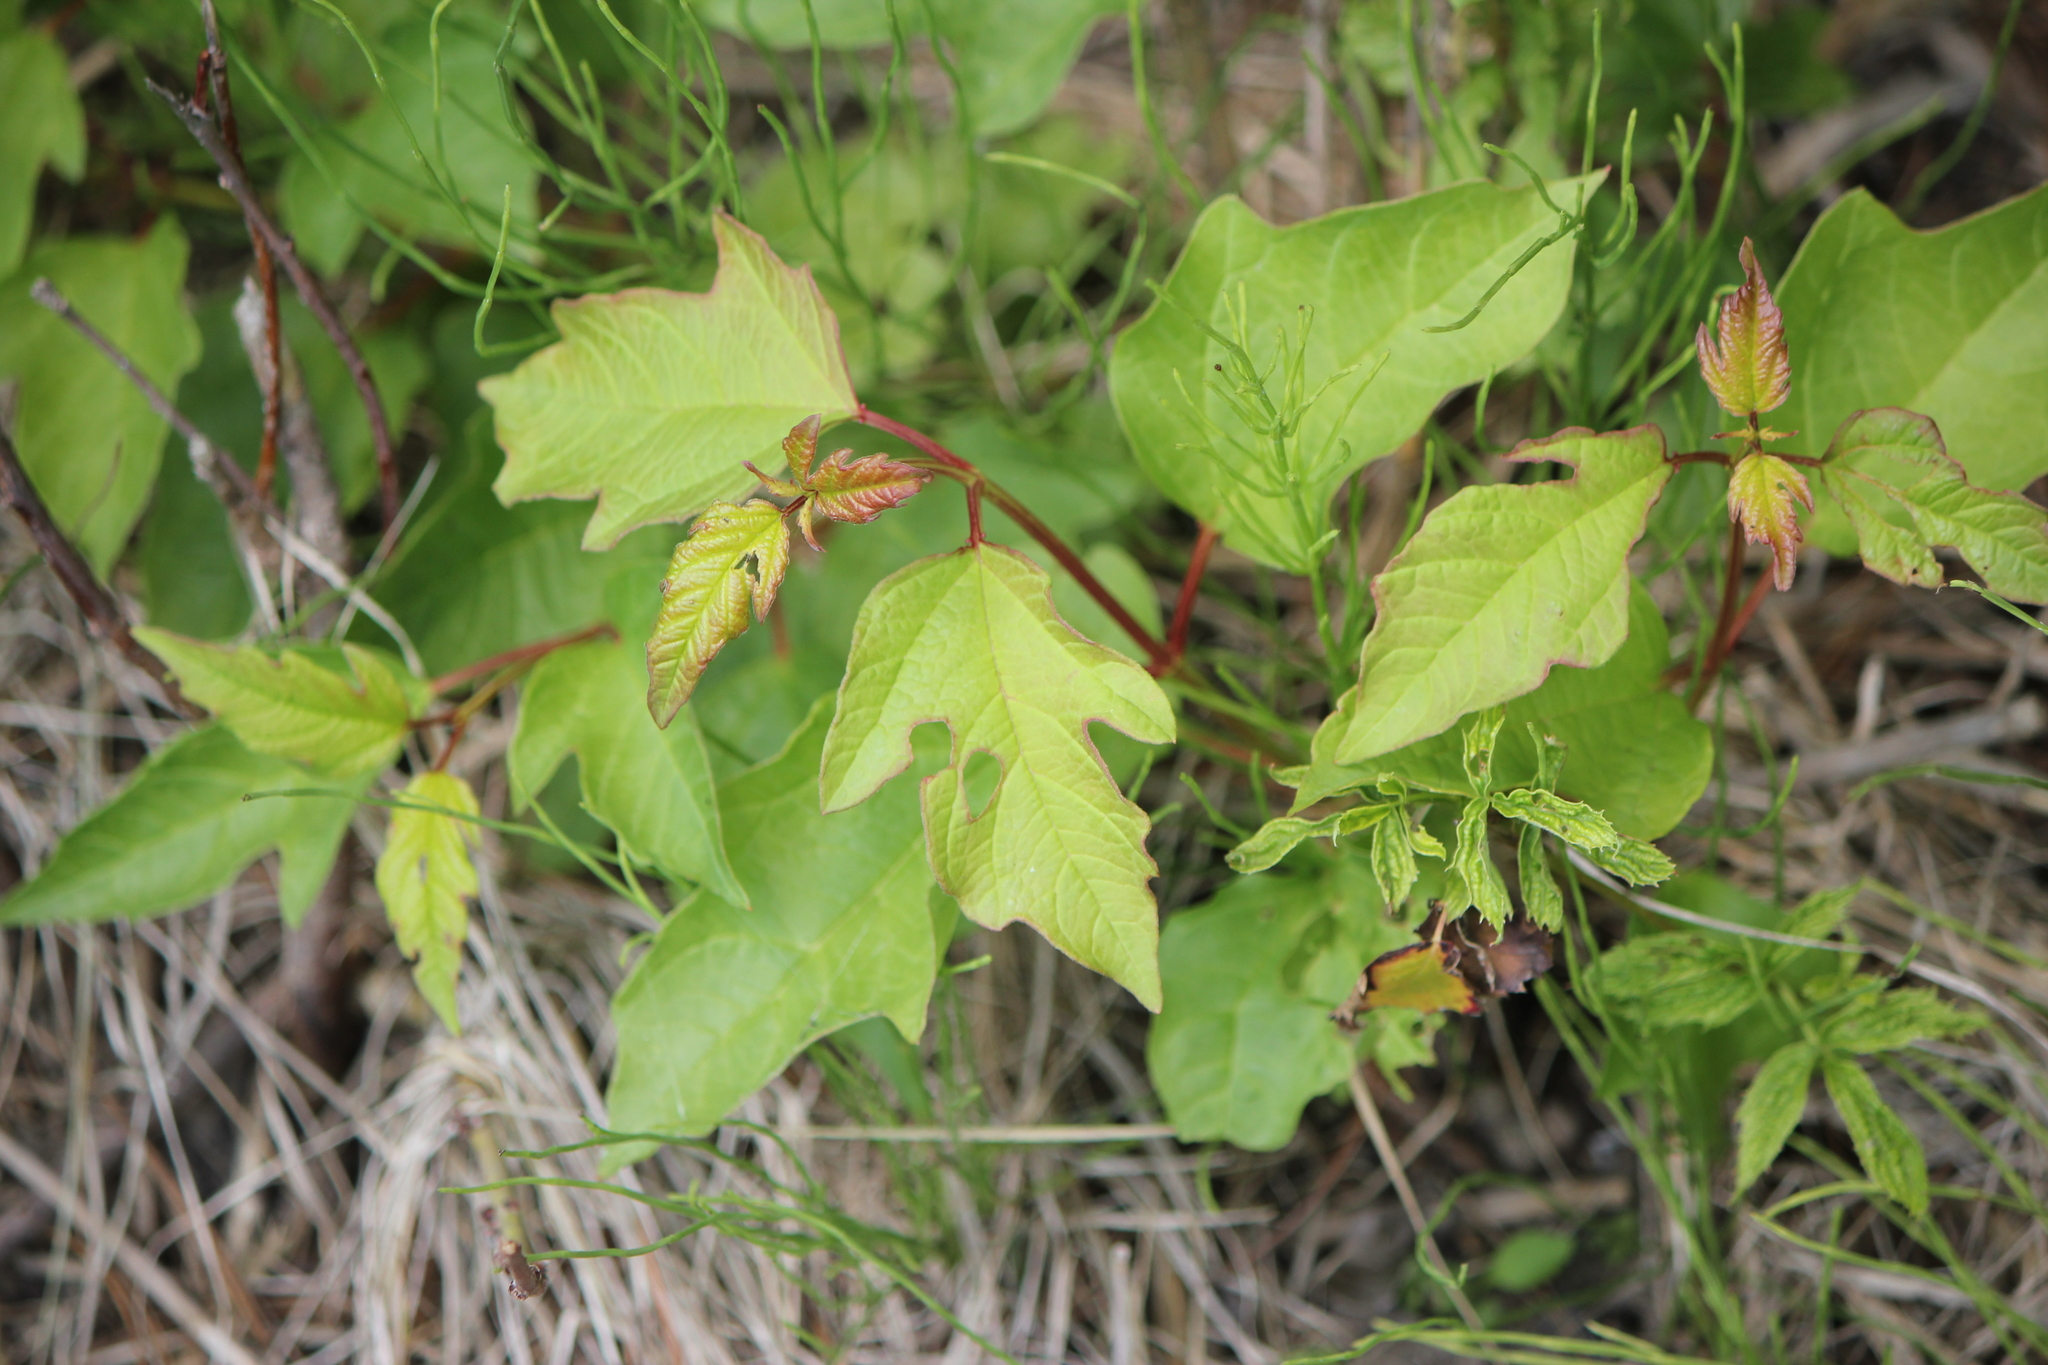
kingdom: Plantae
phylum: Tracheophyta
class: Magnoliopsida
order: Dipsacales
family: Viburnaceae
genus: Viburnum
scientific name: Viburnum opulus
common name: Guelder-rose
